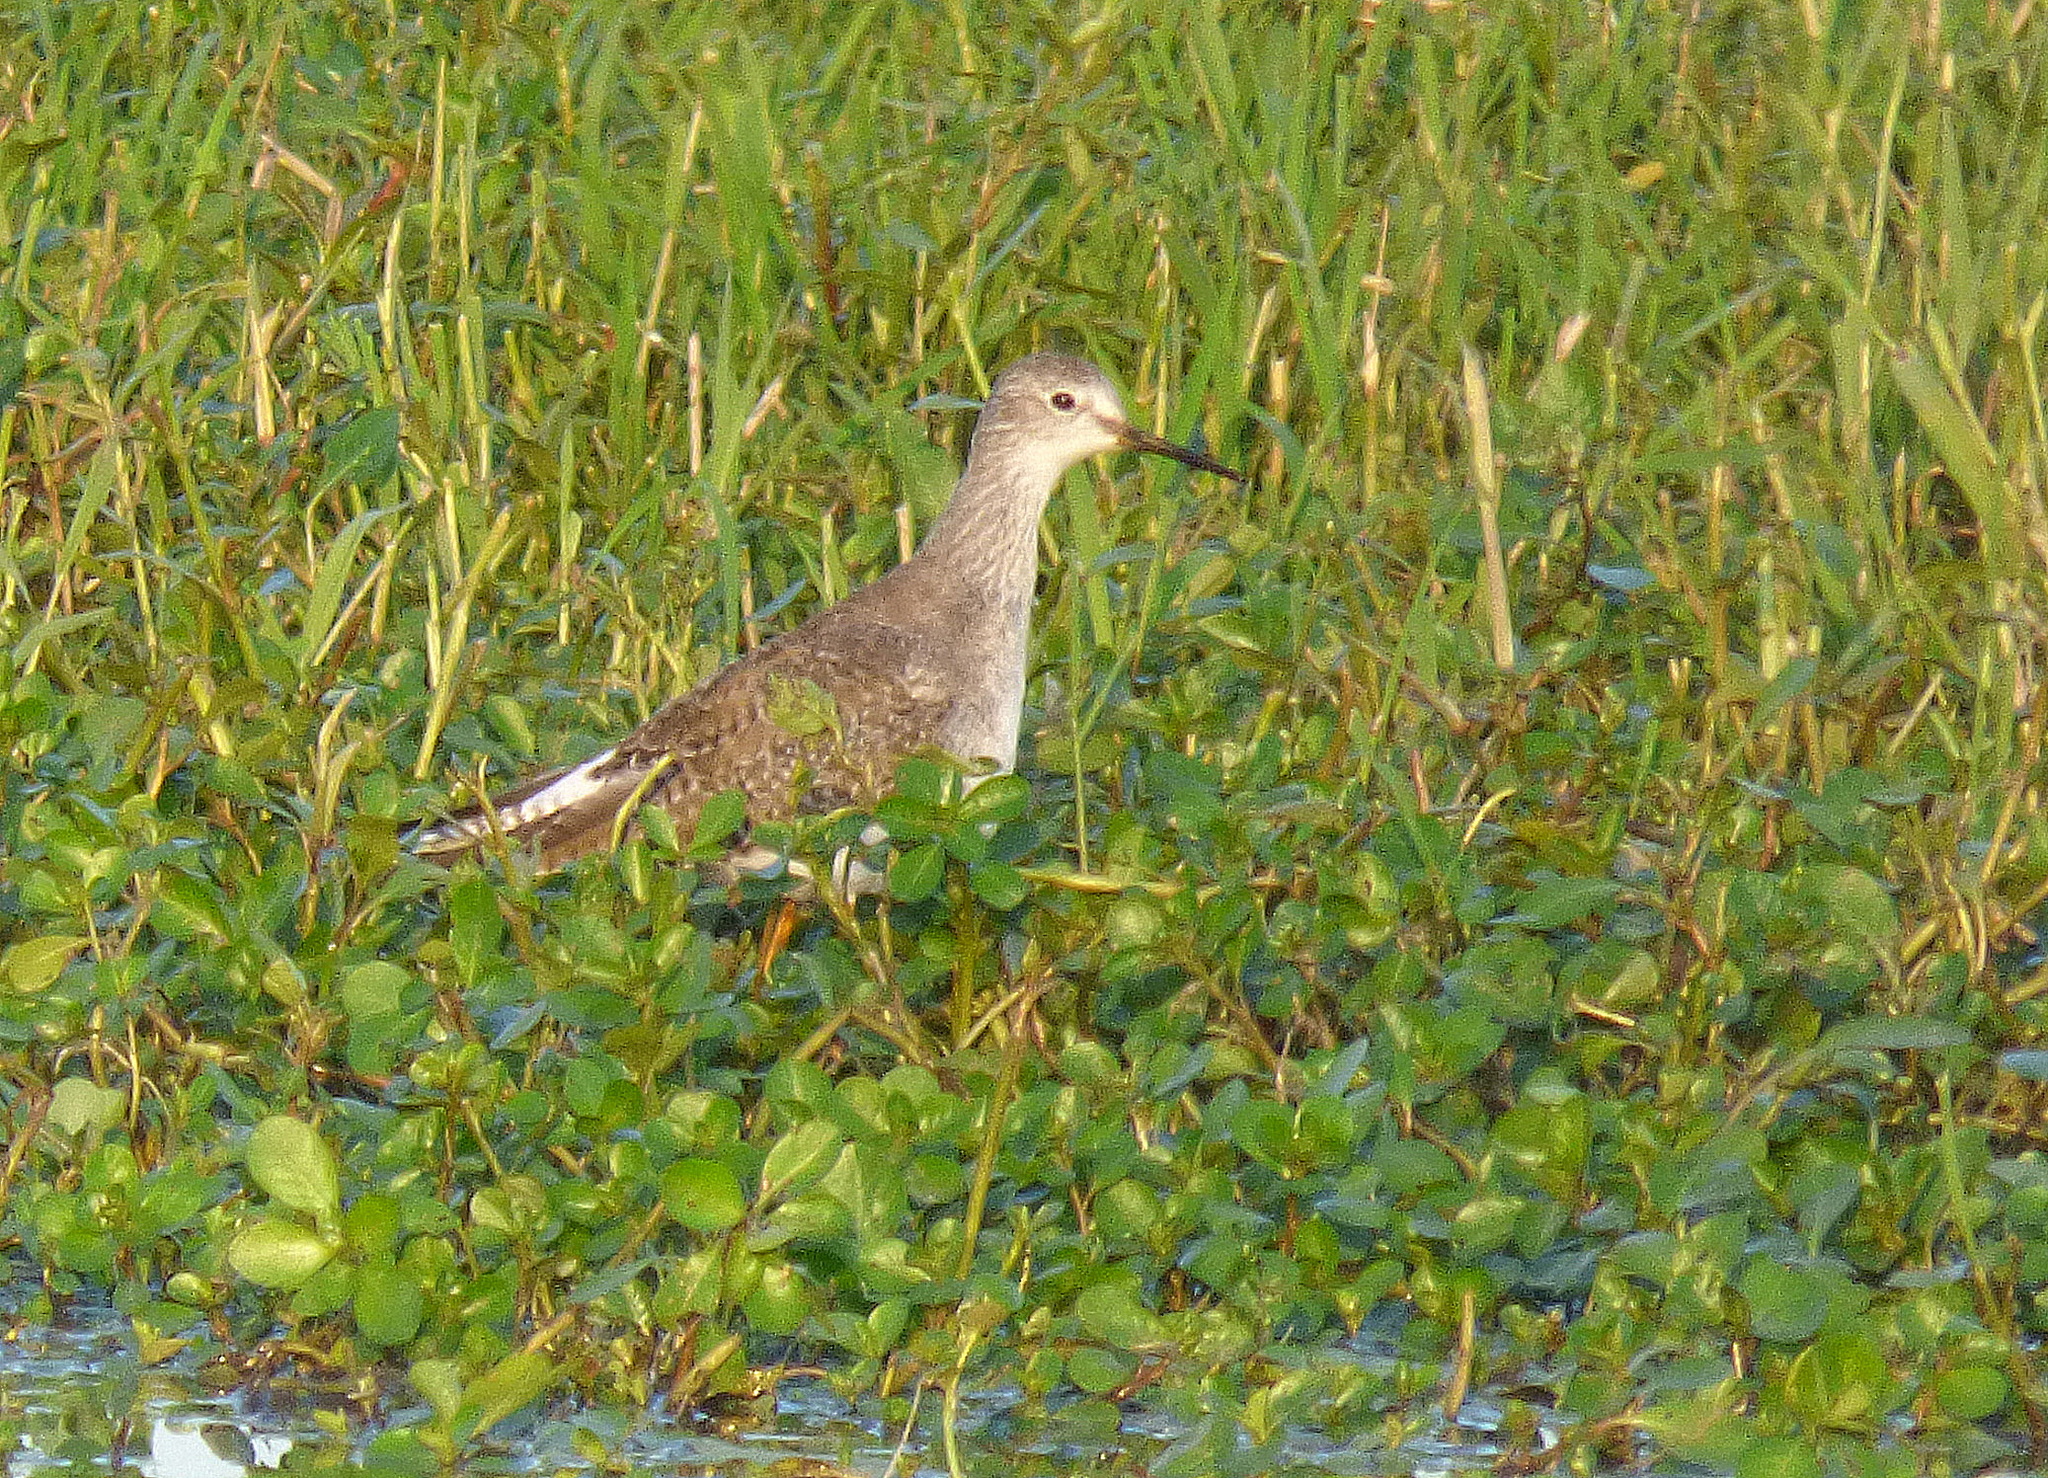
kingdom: Animalia
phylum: Chordata
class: Aves
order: Charadriiformes
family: Scolopacidae
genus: Tringa
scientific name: Tringa flavipes
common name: Lesser yellowlegs
